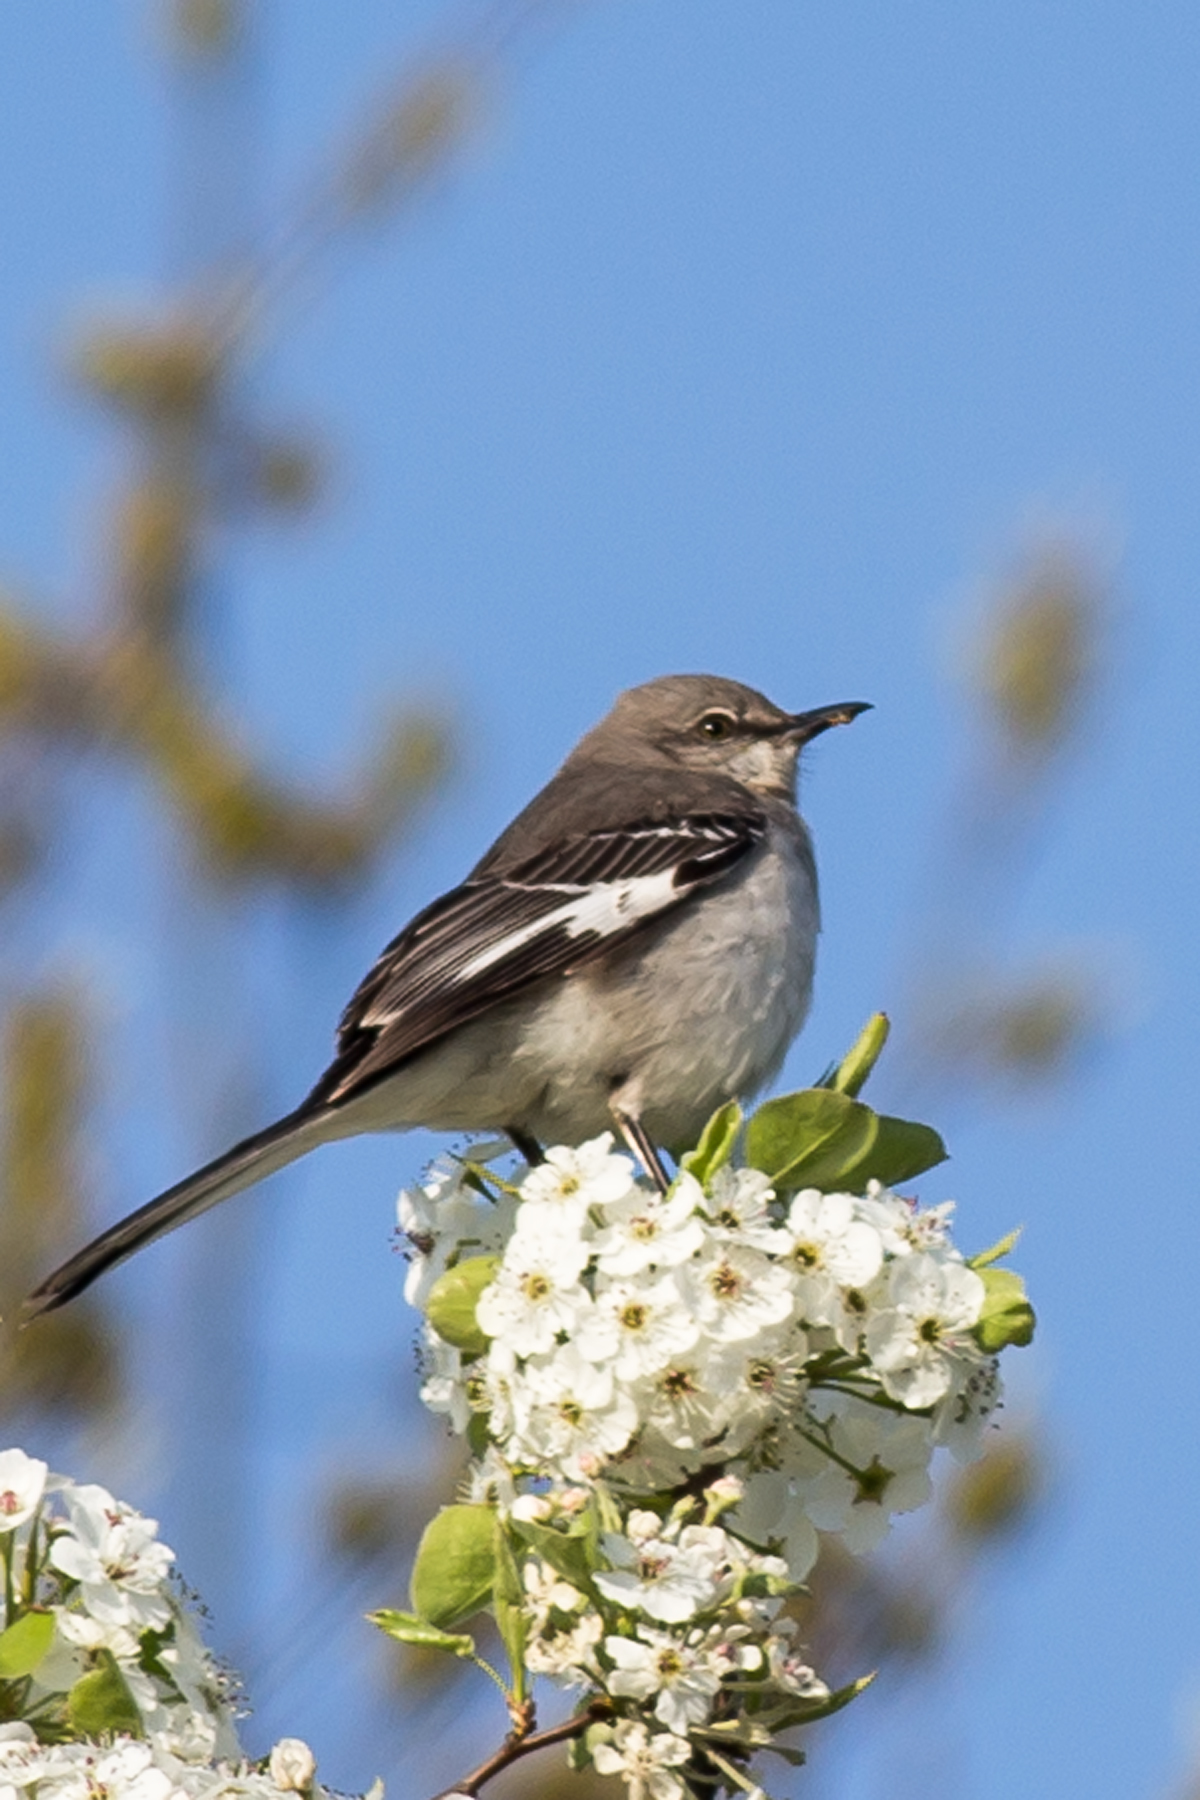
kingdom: Animalia
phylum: Chordata
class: Aves
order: Passeriformes
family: Mimidae
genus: Mimus
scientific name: Mimus polyglottos
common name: Northern mockingbird
